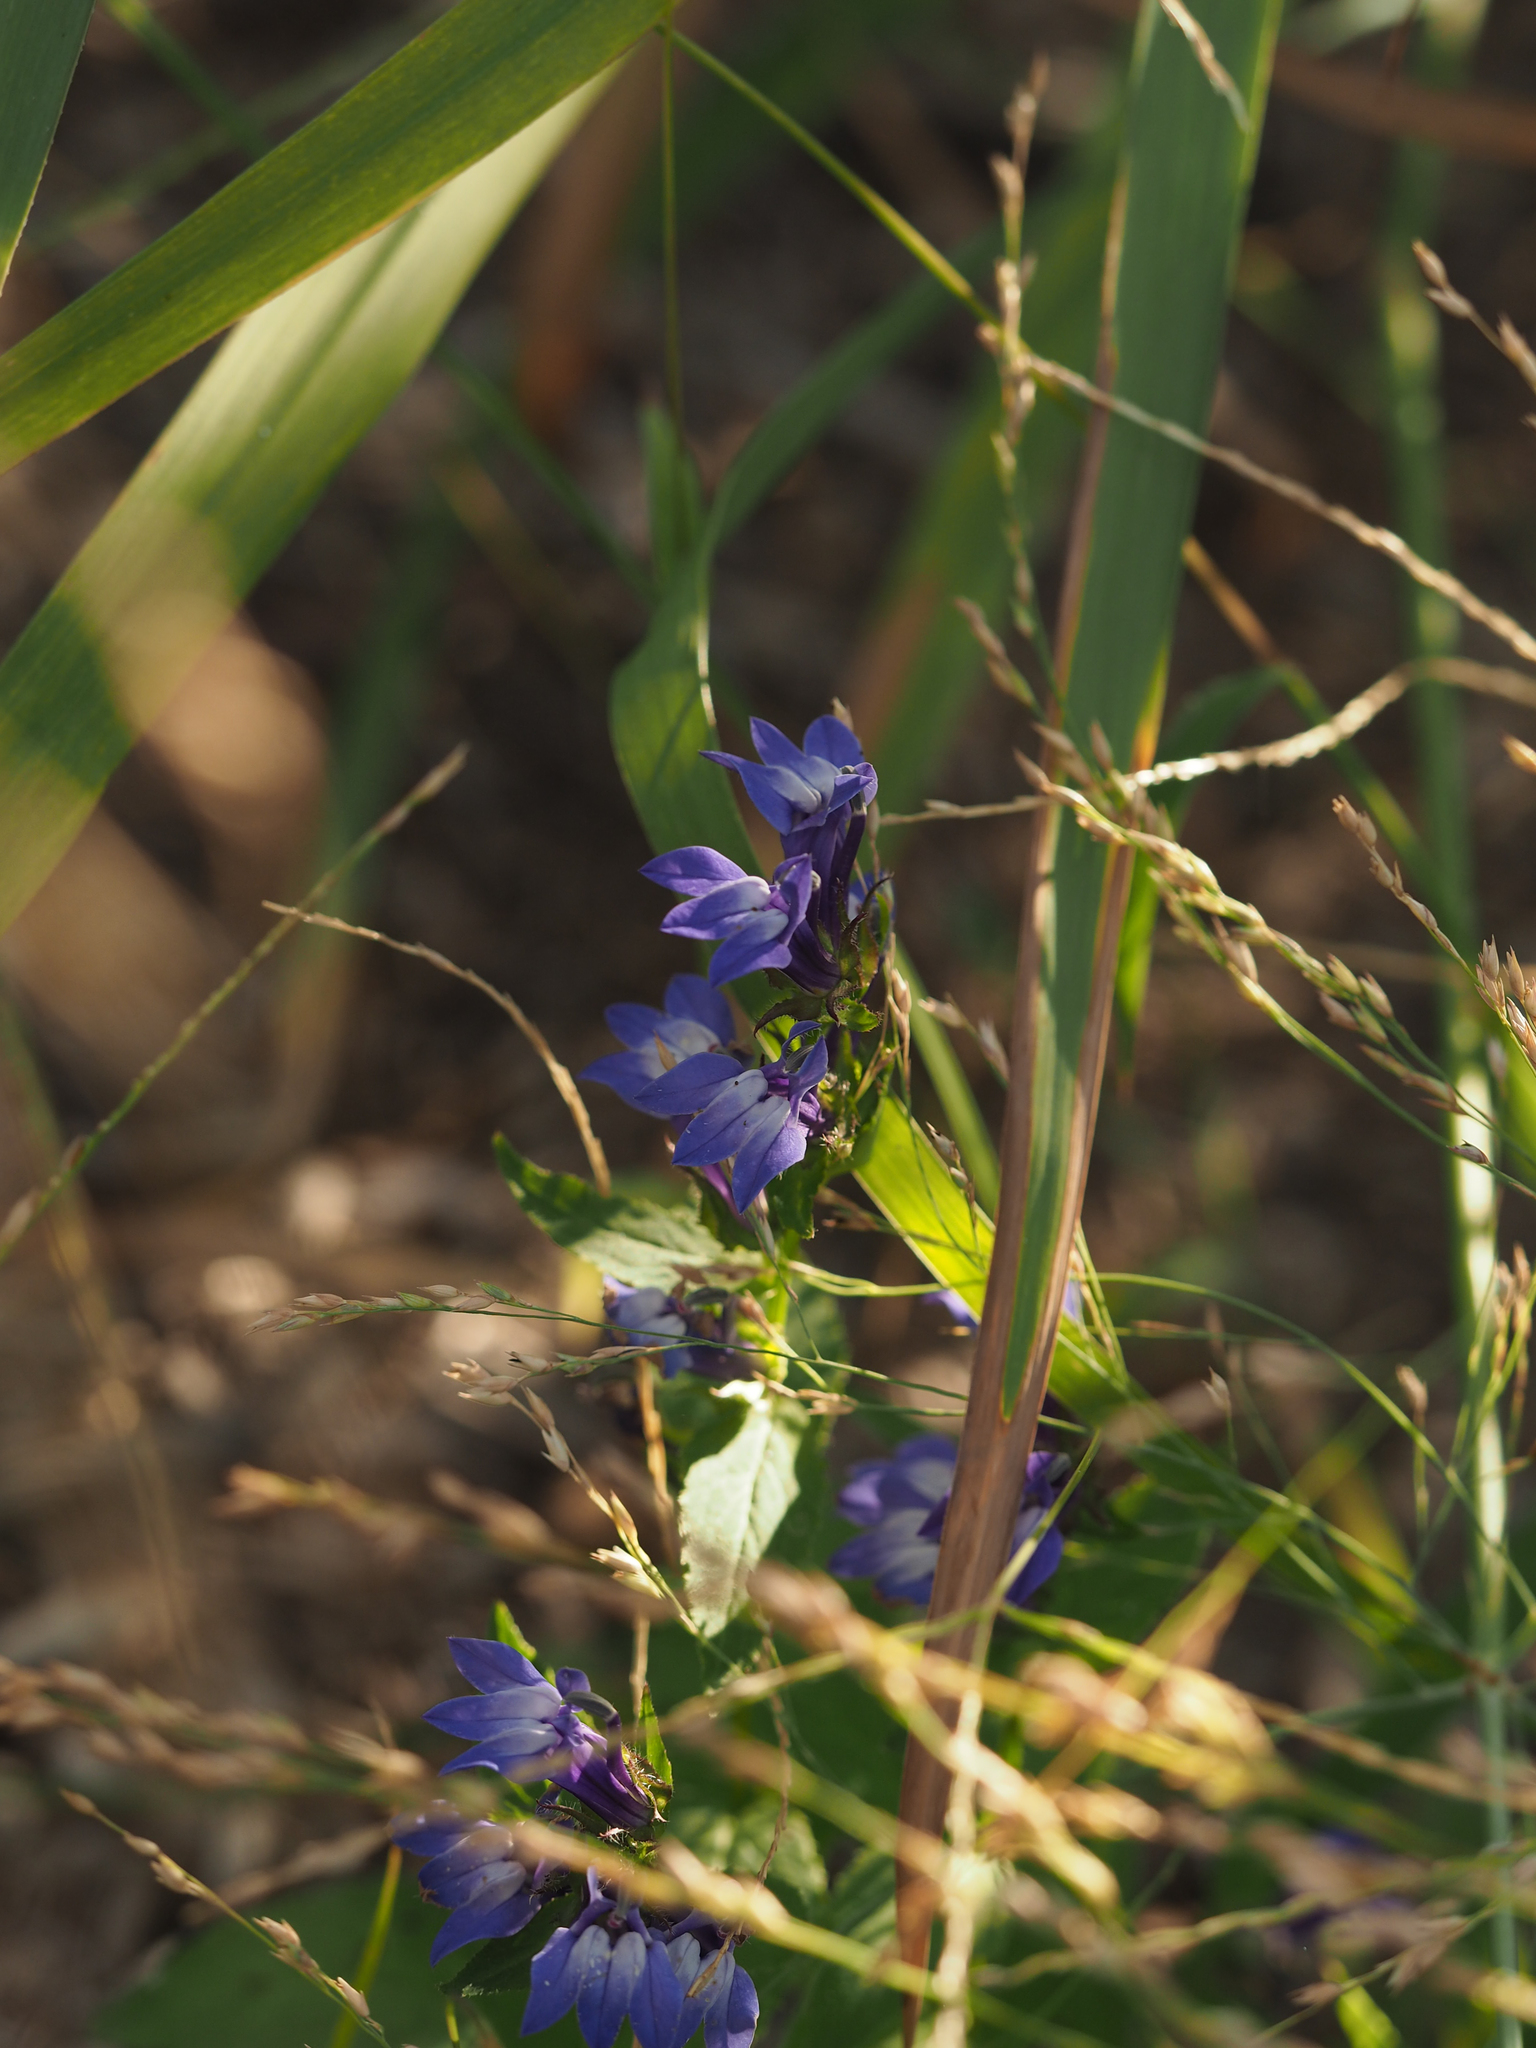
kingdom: Plantae
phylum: Tracheophyta
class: Magnoliopsida
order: Asterales
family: Campanulaceae
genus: Lobelia
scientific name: Lobelia siphilitica
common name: Great lobelia
